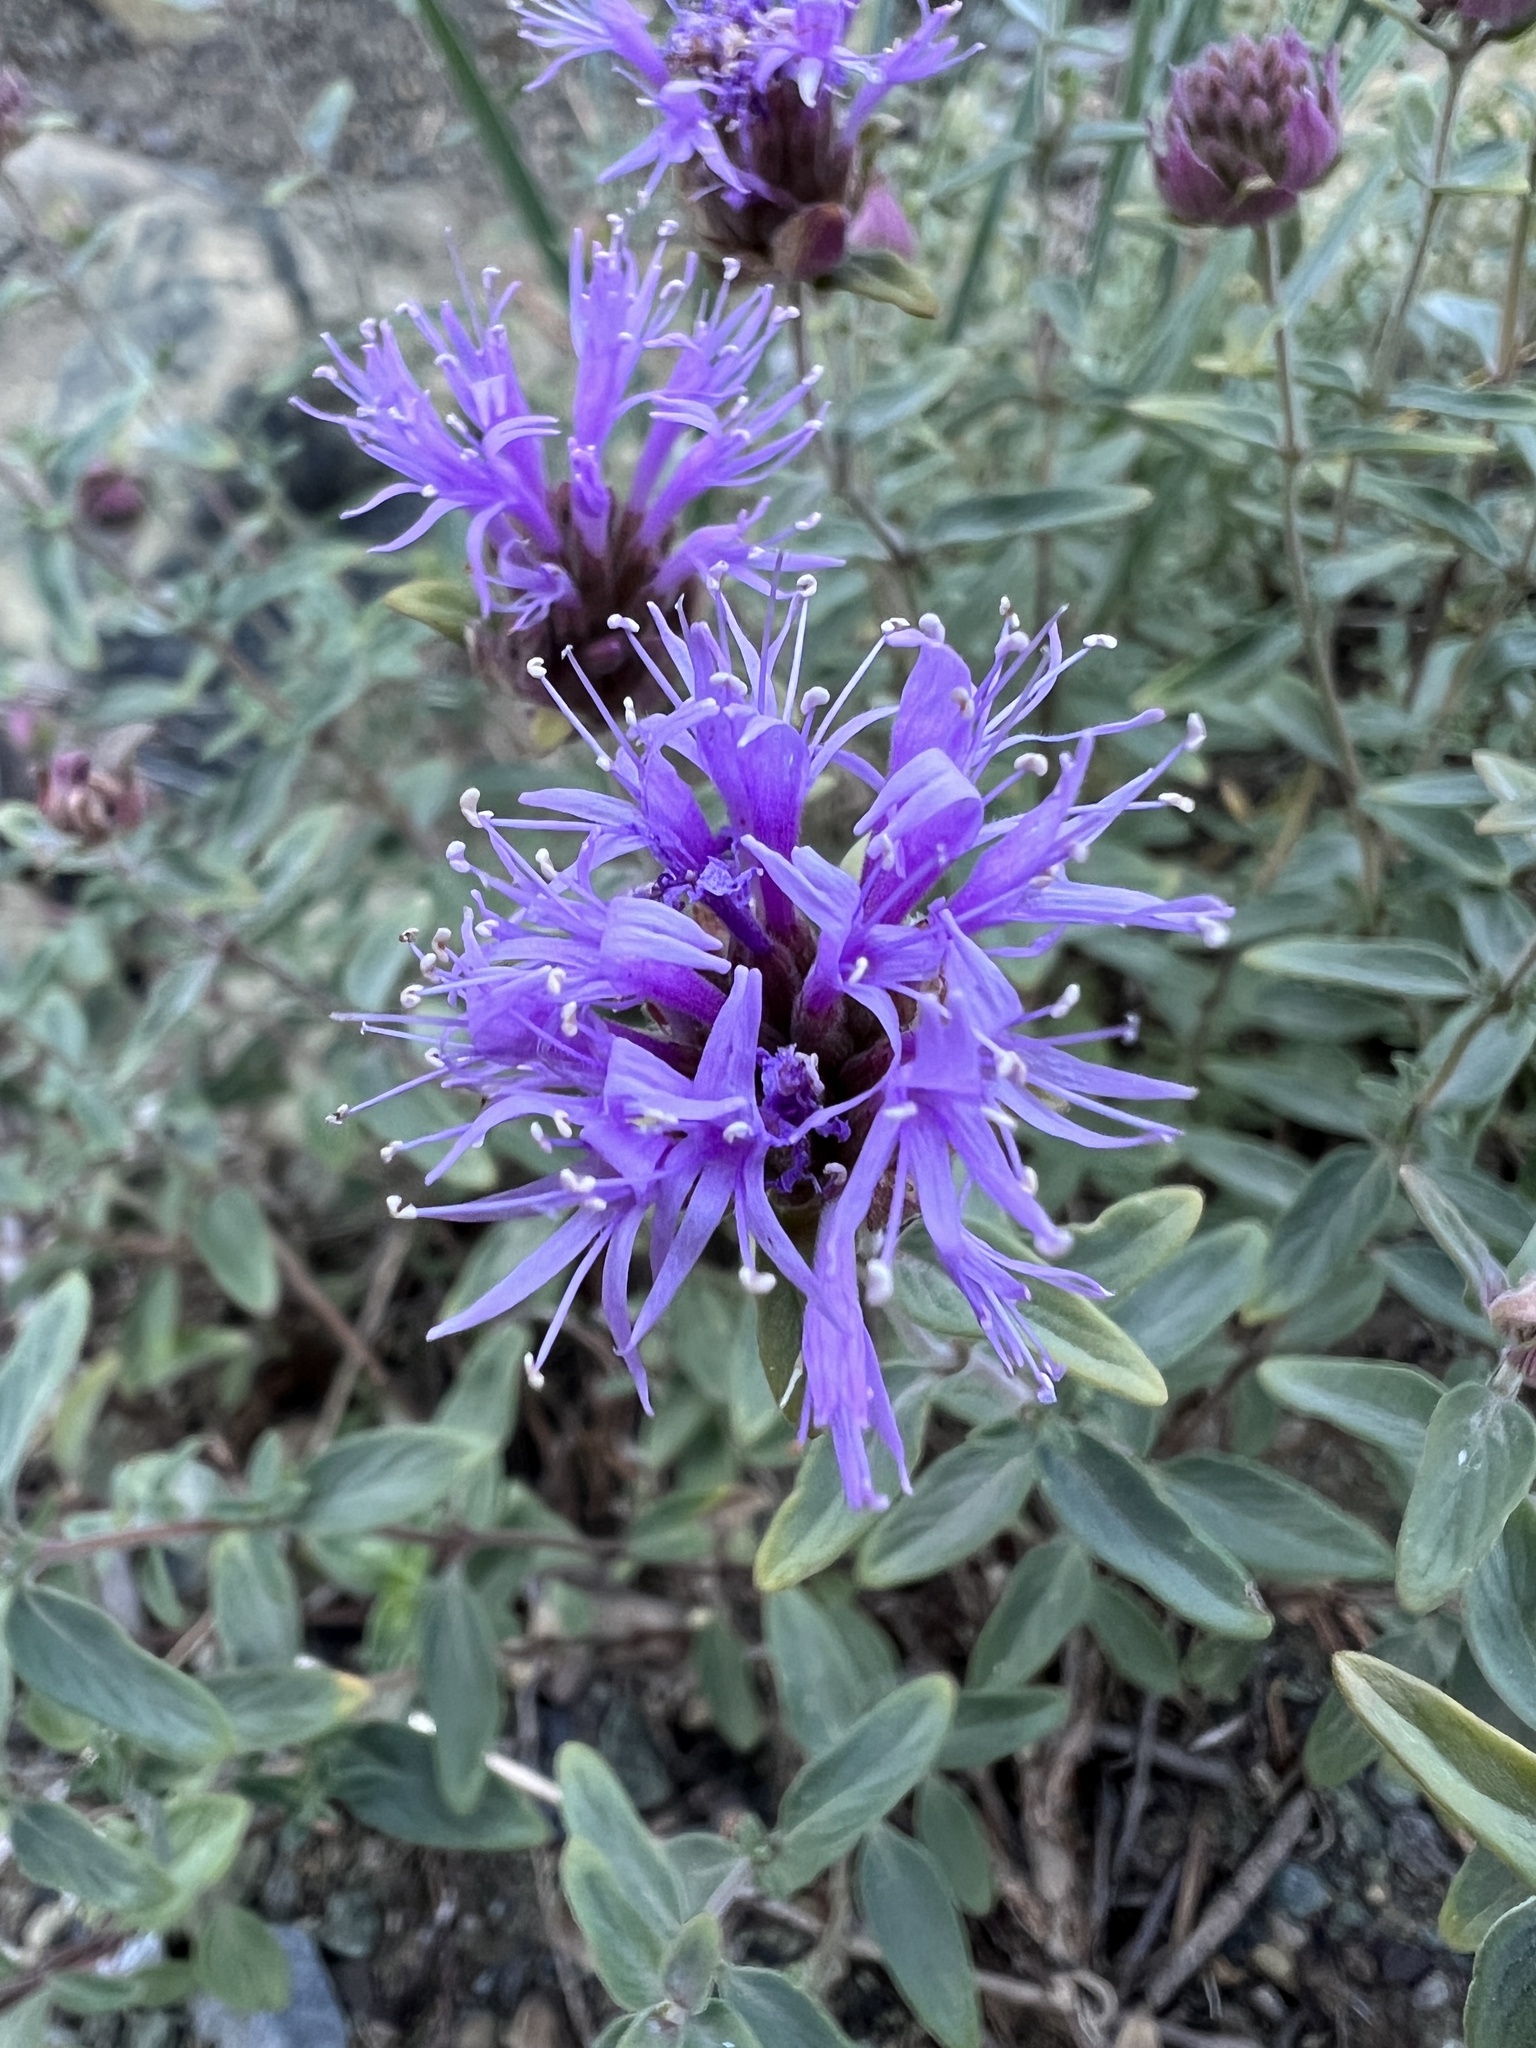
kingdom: Plantae
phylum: Tracheophyta
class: Magnoliopsida
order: Lamiales
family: Lamiaceae
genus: Monardella
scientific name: Monardella odoratissima
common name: Pacific monardella
